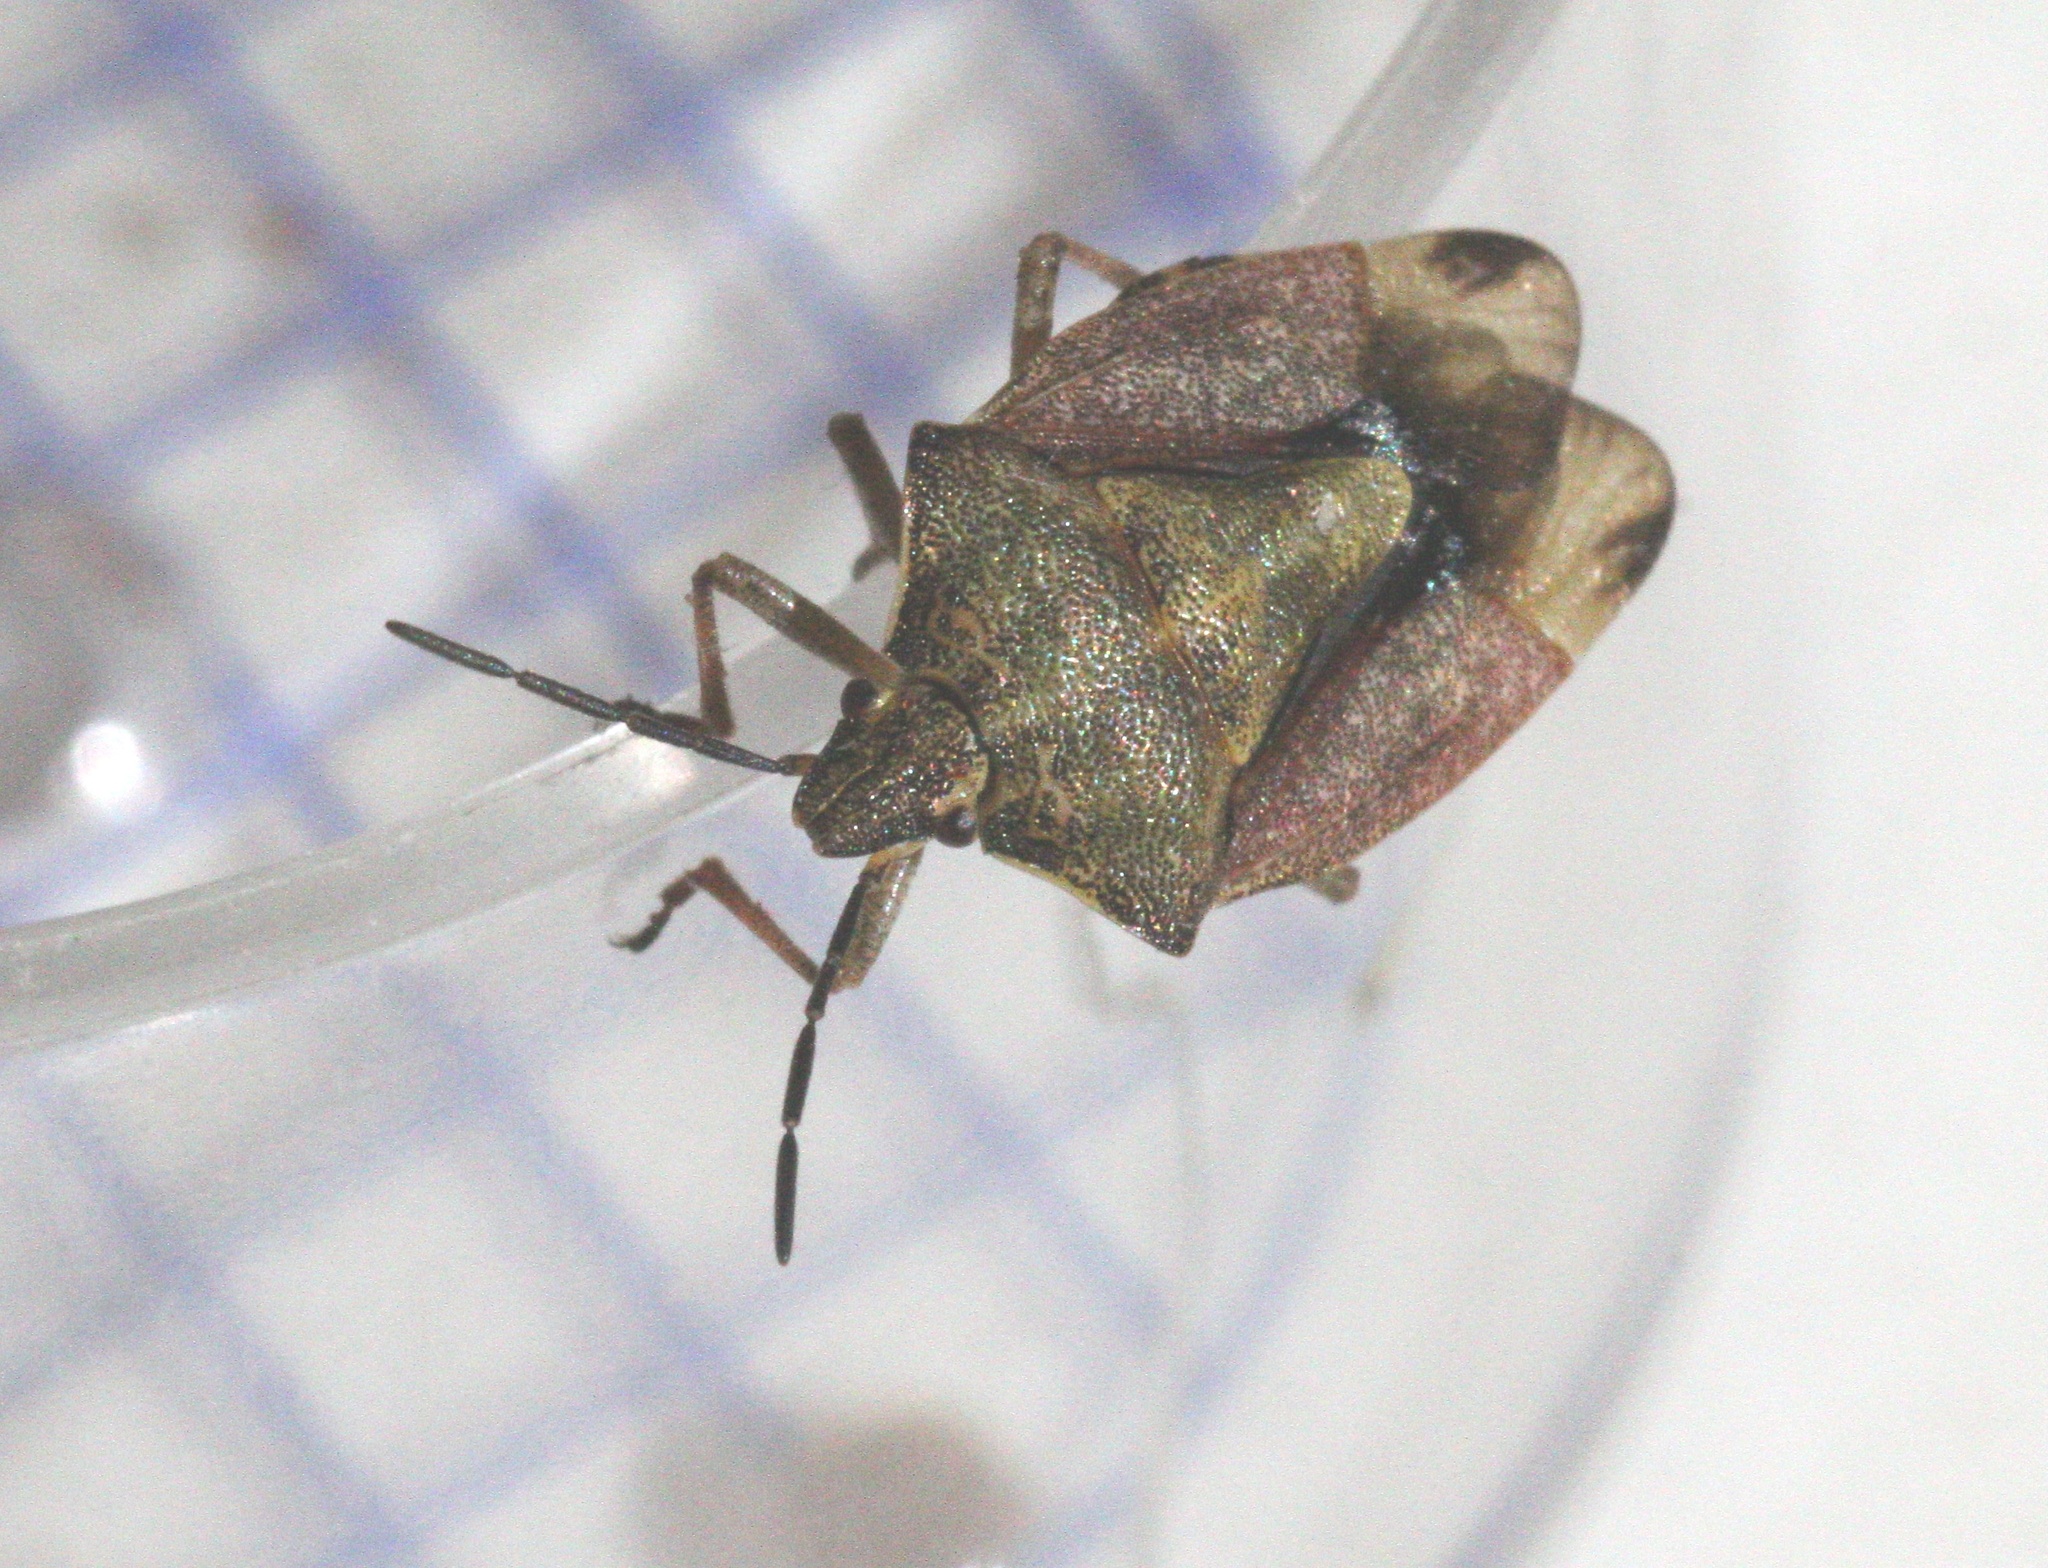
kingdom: Animalia
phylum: Arthropoda
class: Insecta
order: Hemiptera
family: Pentatomidae
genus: Carpocoris
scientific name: Carpocoris purpureipennis
